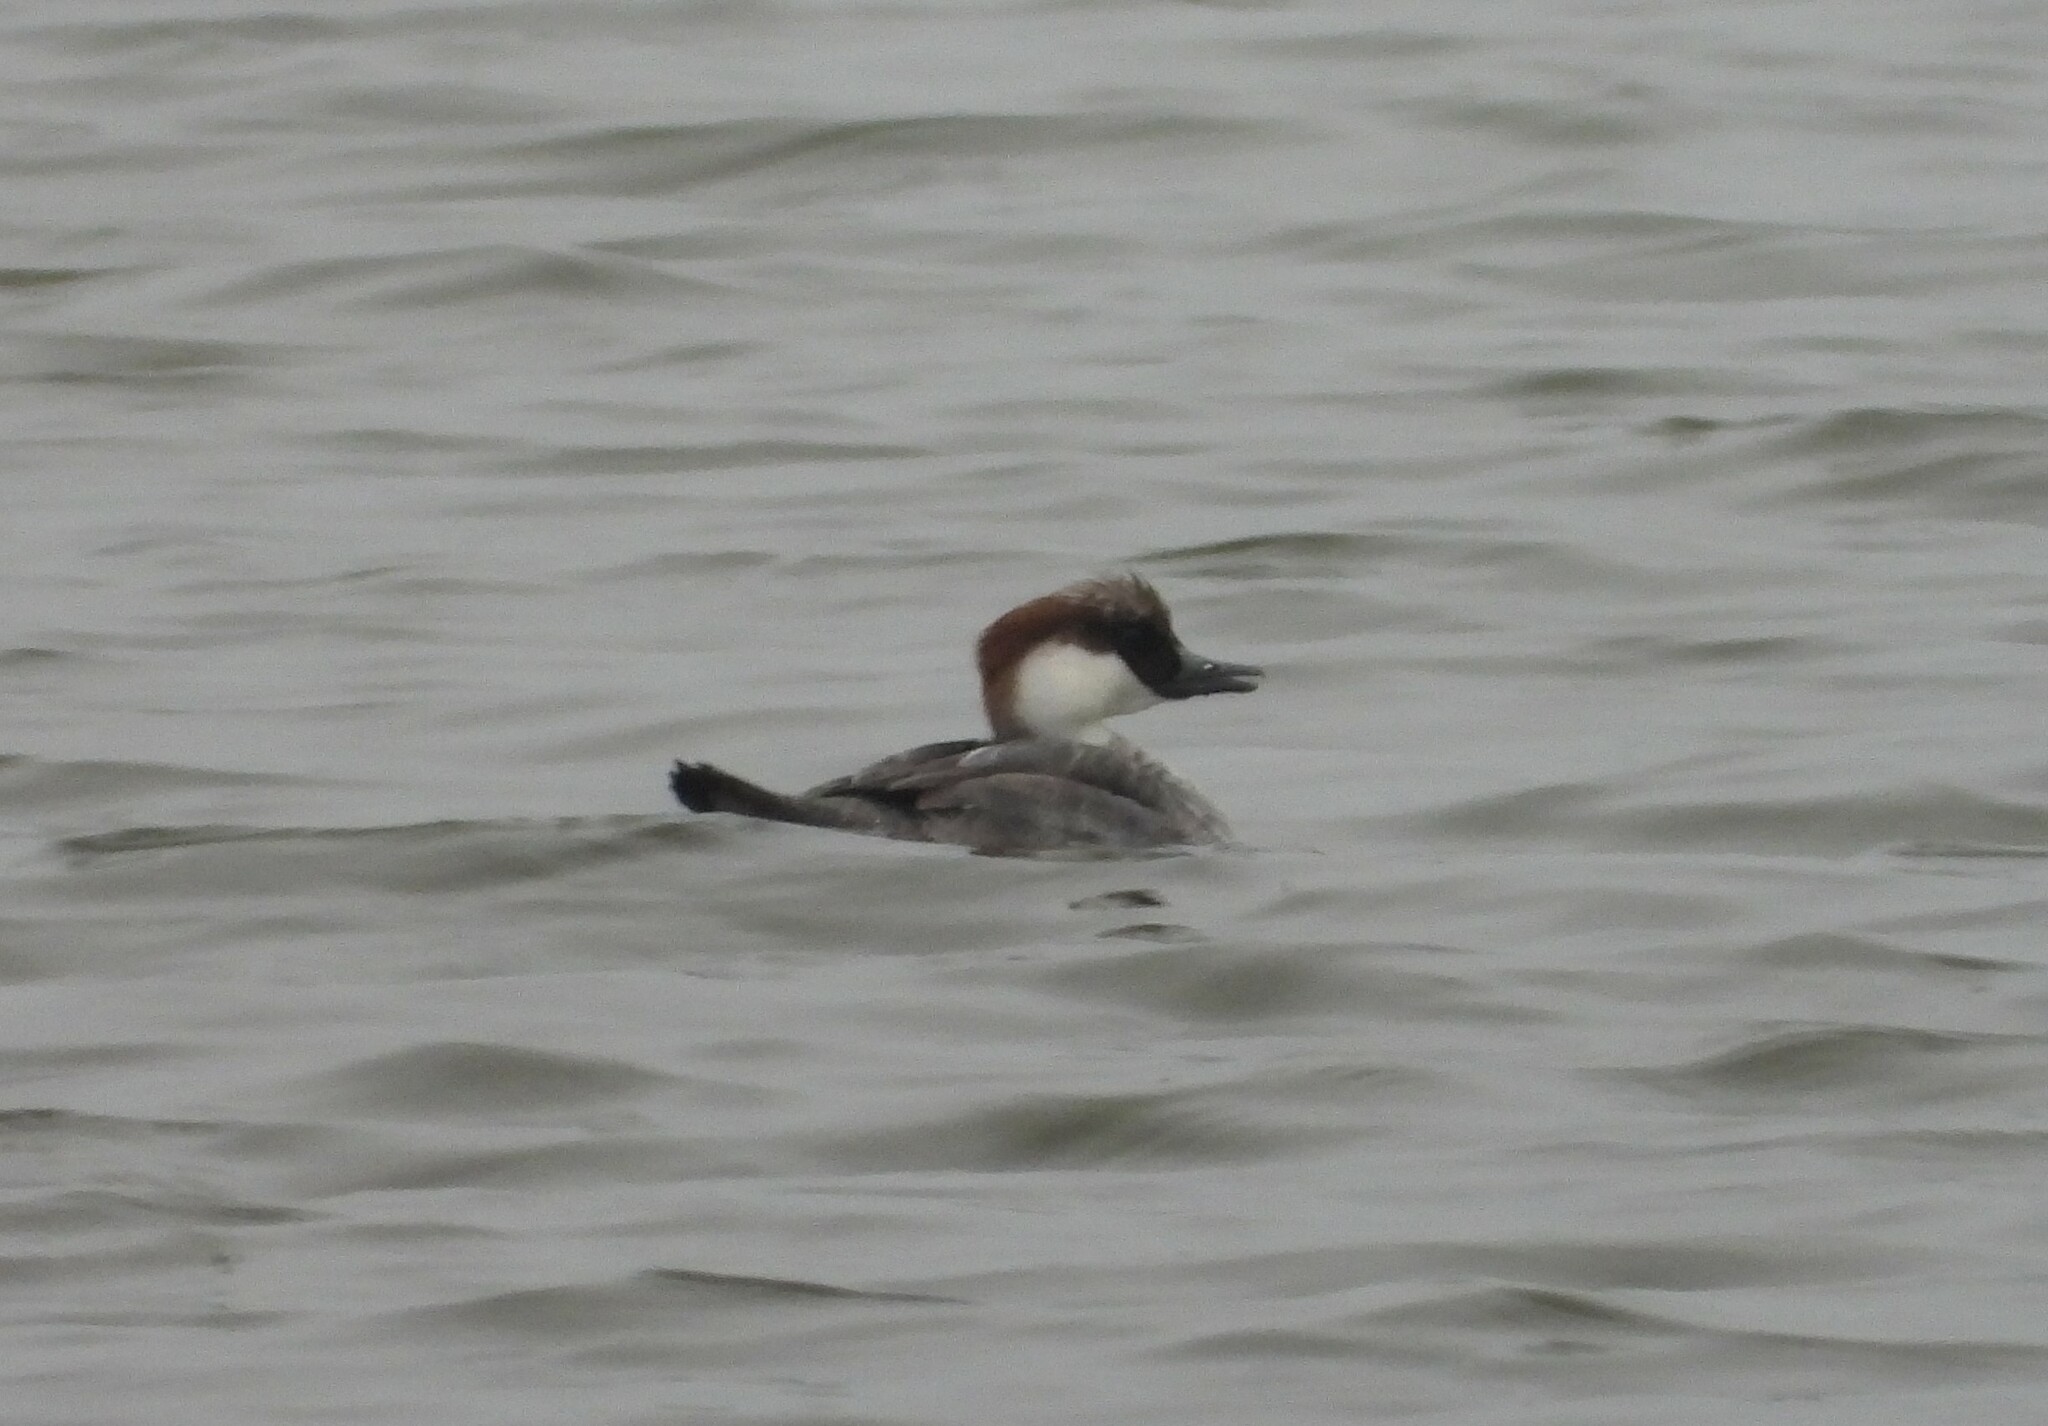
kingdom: Animalia
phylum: Chordata
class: Aves
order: Anseriformes
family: Anatidae
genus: Mergellus
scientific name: Mergellus albellus
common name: Smew
